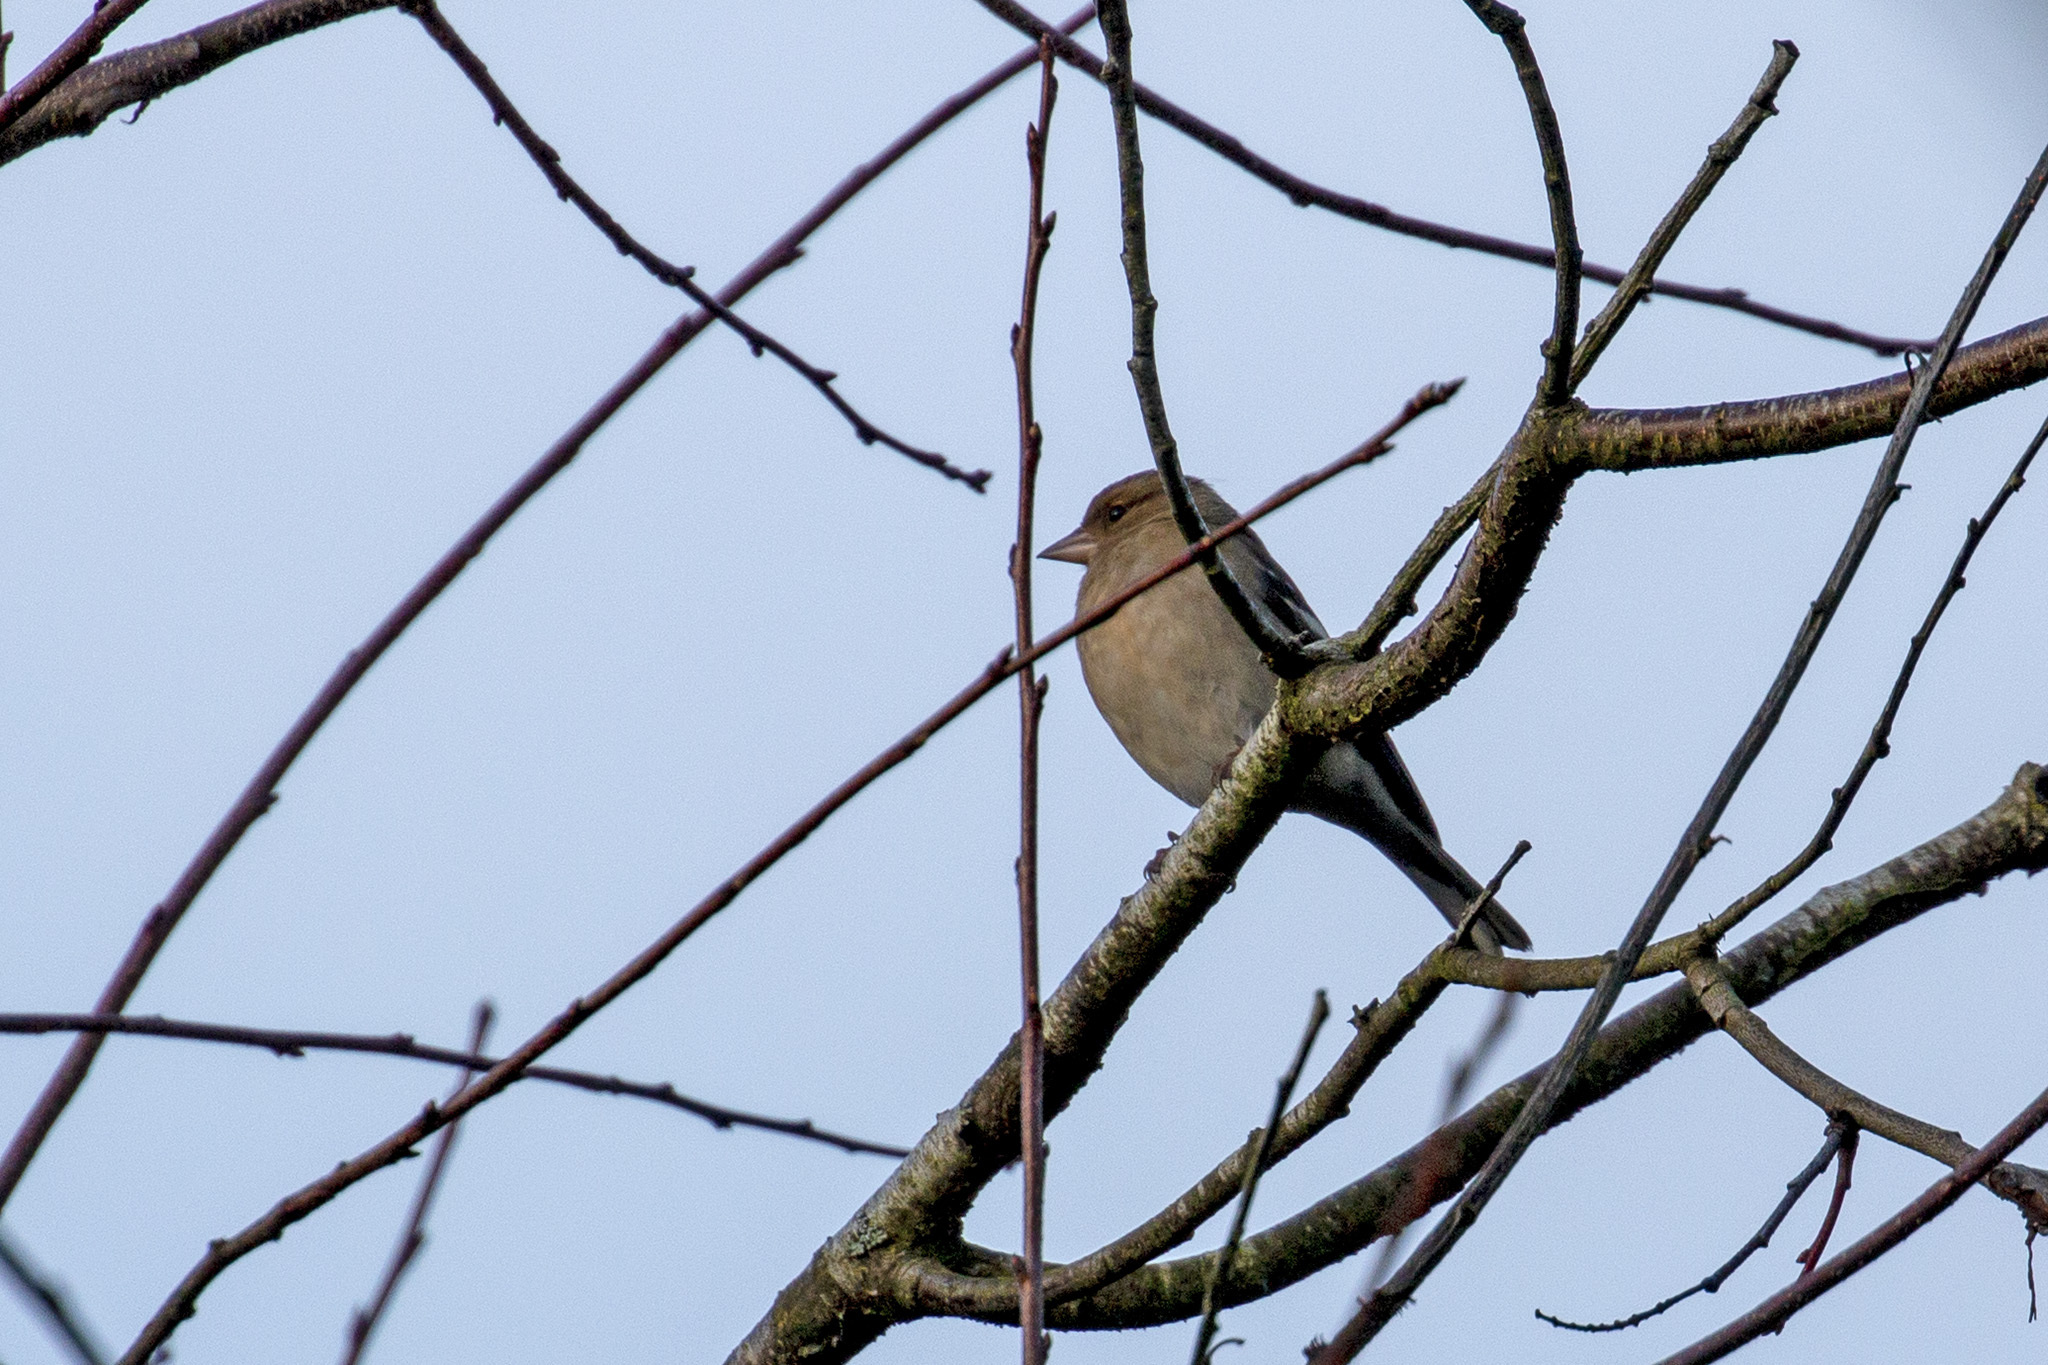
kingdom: Animalia
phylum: Chordata
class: Aves
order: Passeriformes
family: Fringillidae
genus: Fringilla
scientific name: Fringilla coelebs
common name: Common chaffinch
